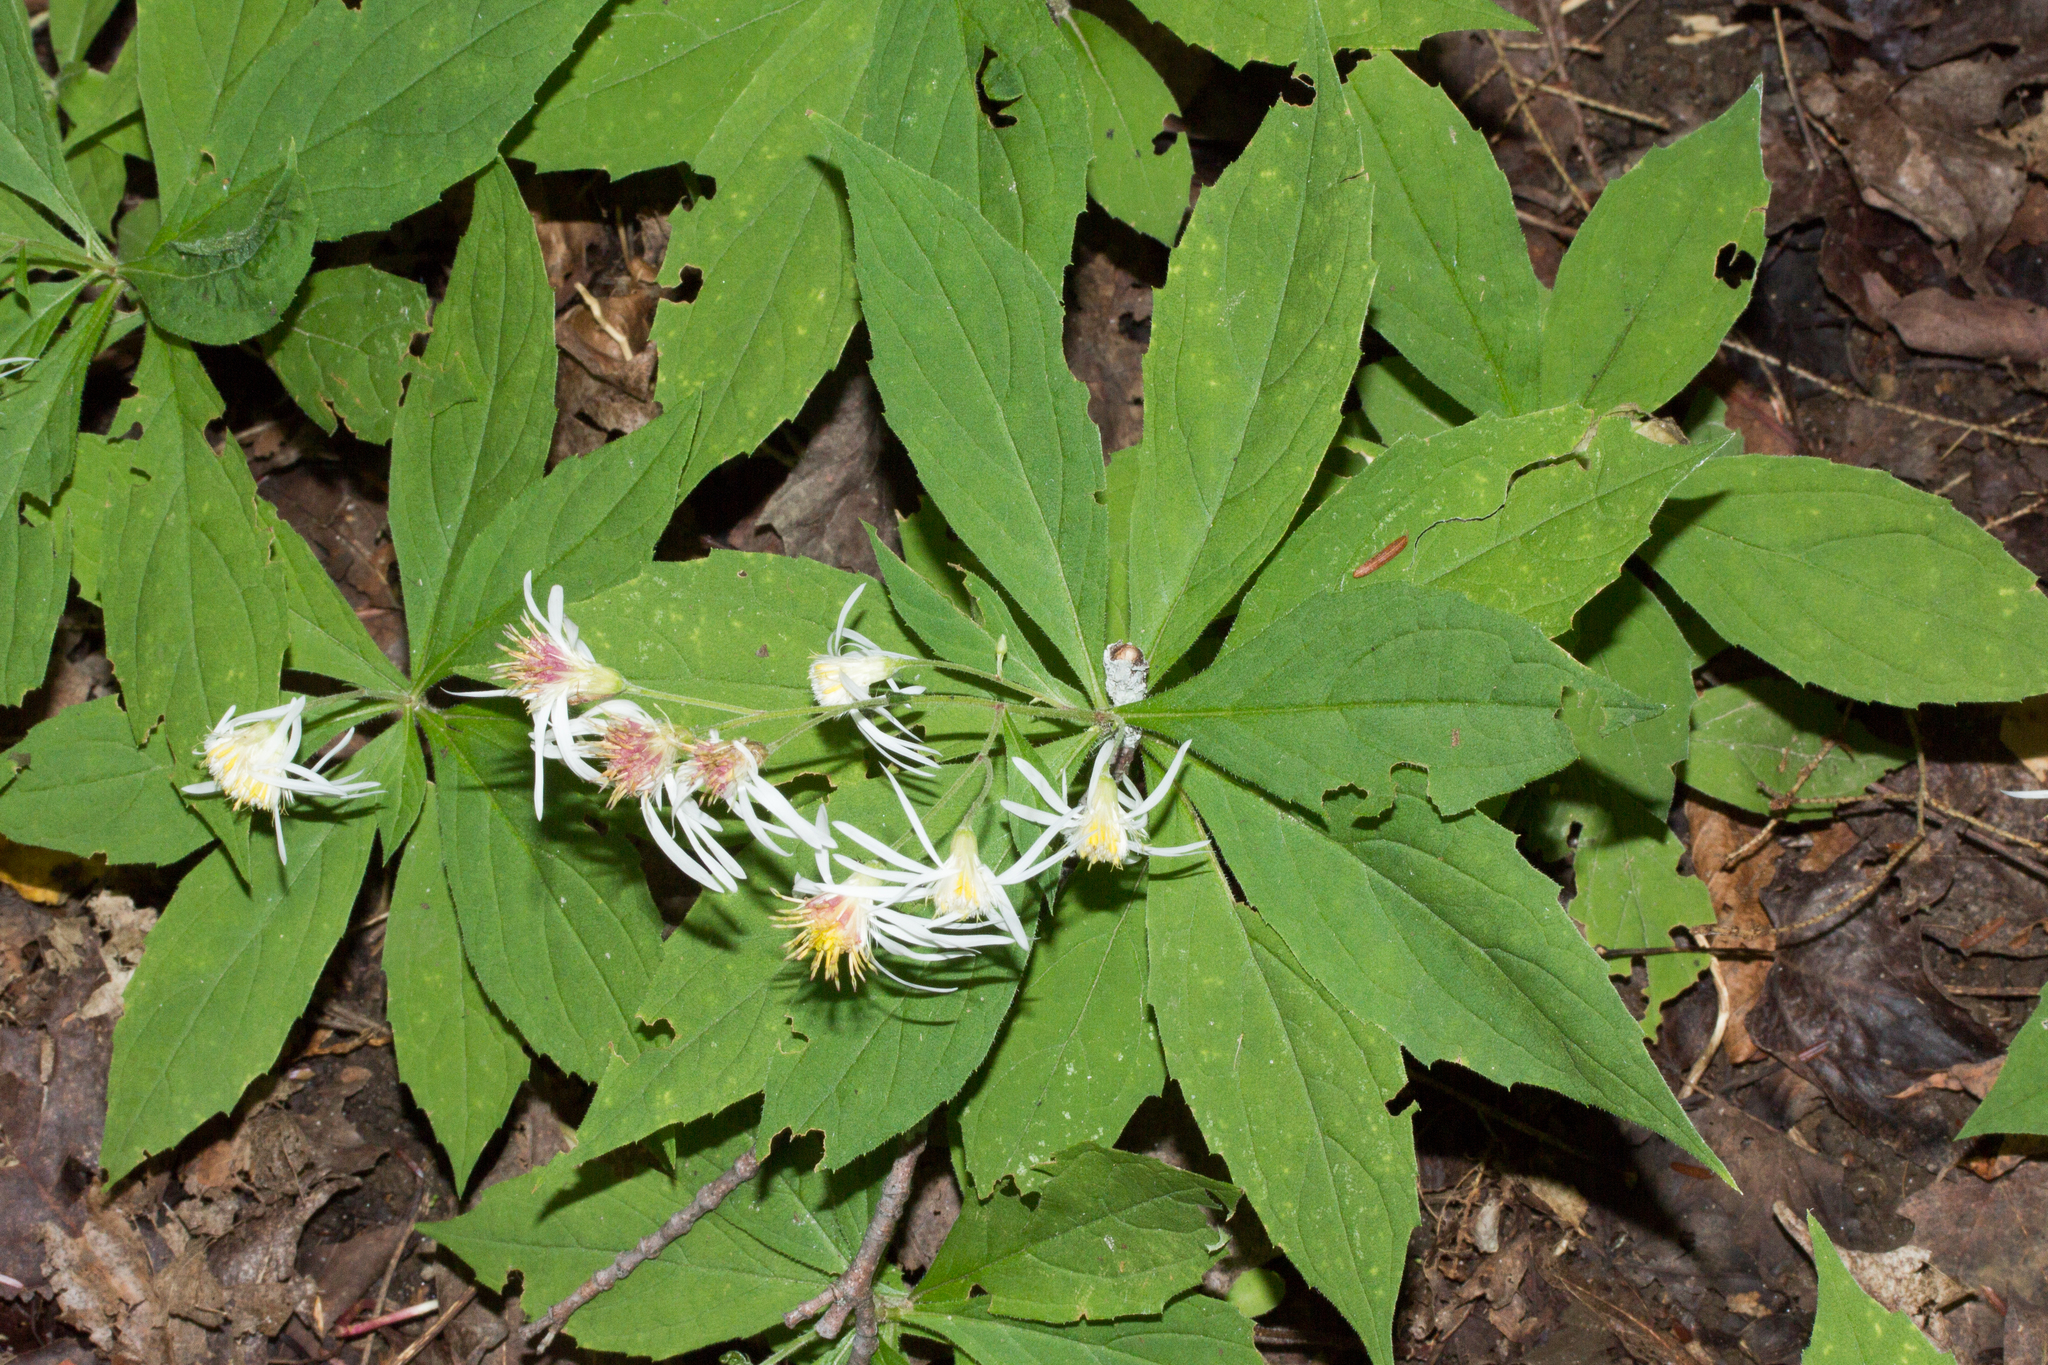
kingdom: Plantae
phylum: Tracheophyta
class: Magnoliopsida
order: Asterales
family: Asteraceae
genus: Oclemena
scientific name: Oclemena acuminata
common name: Mountain aster
